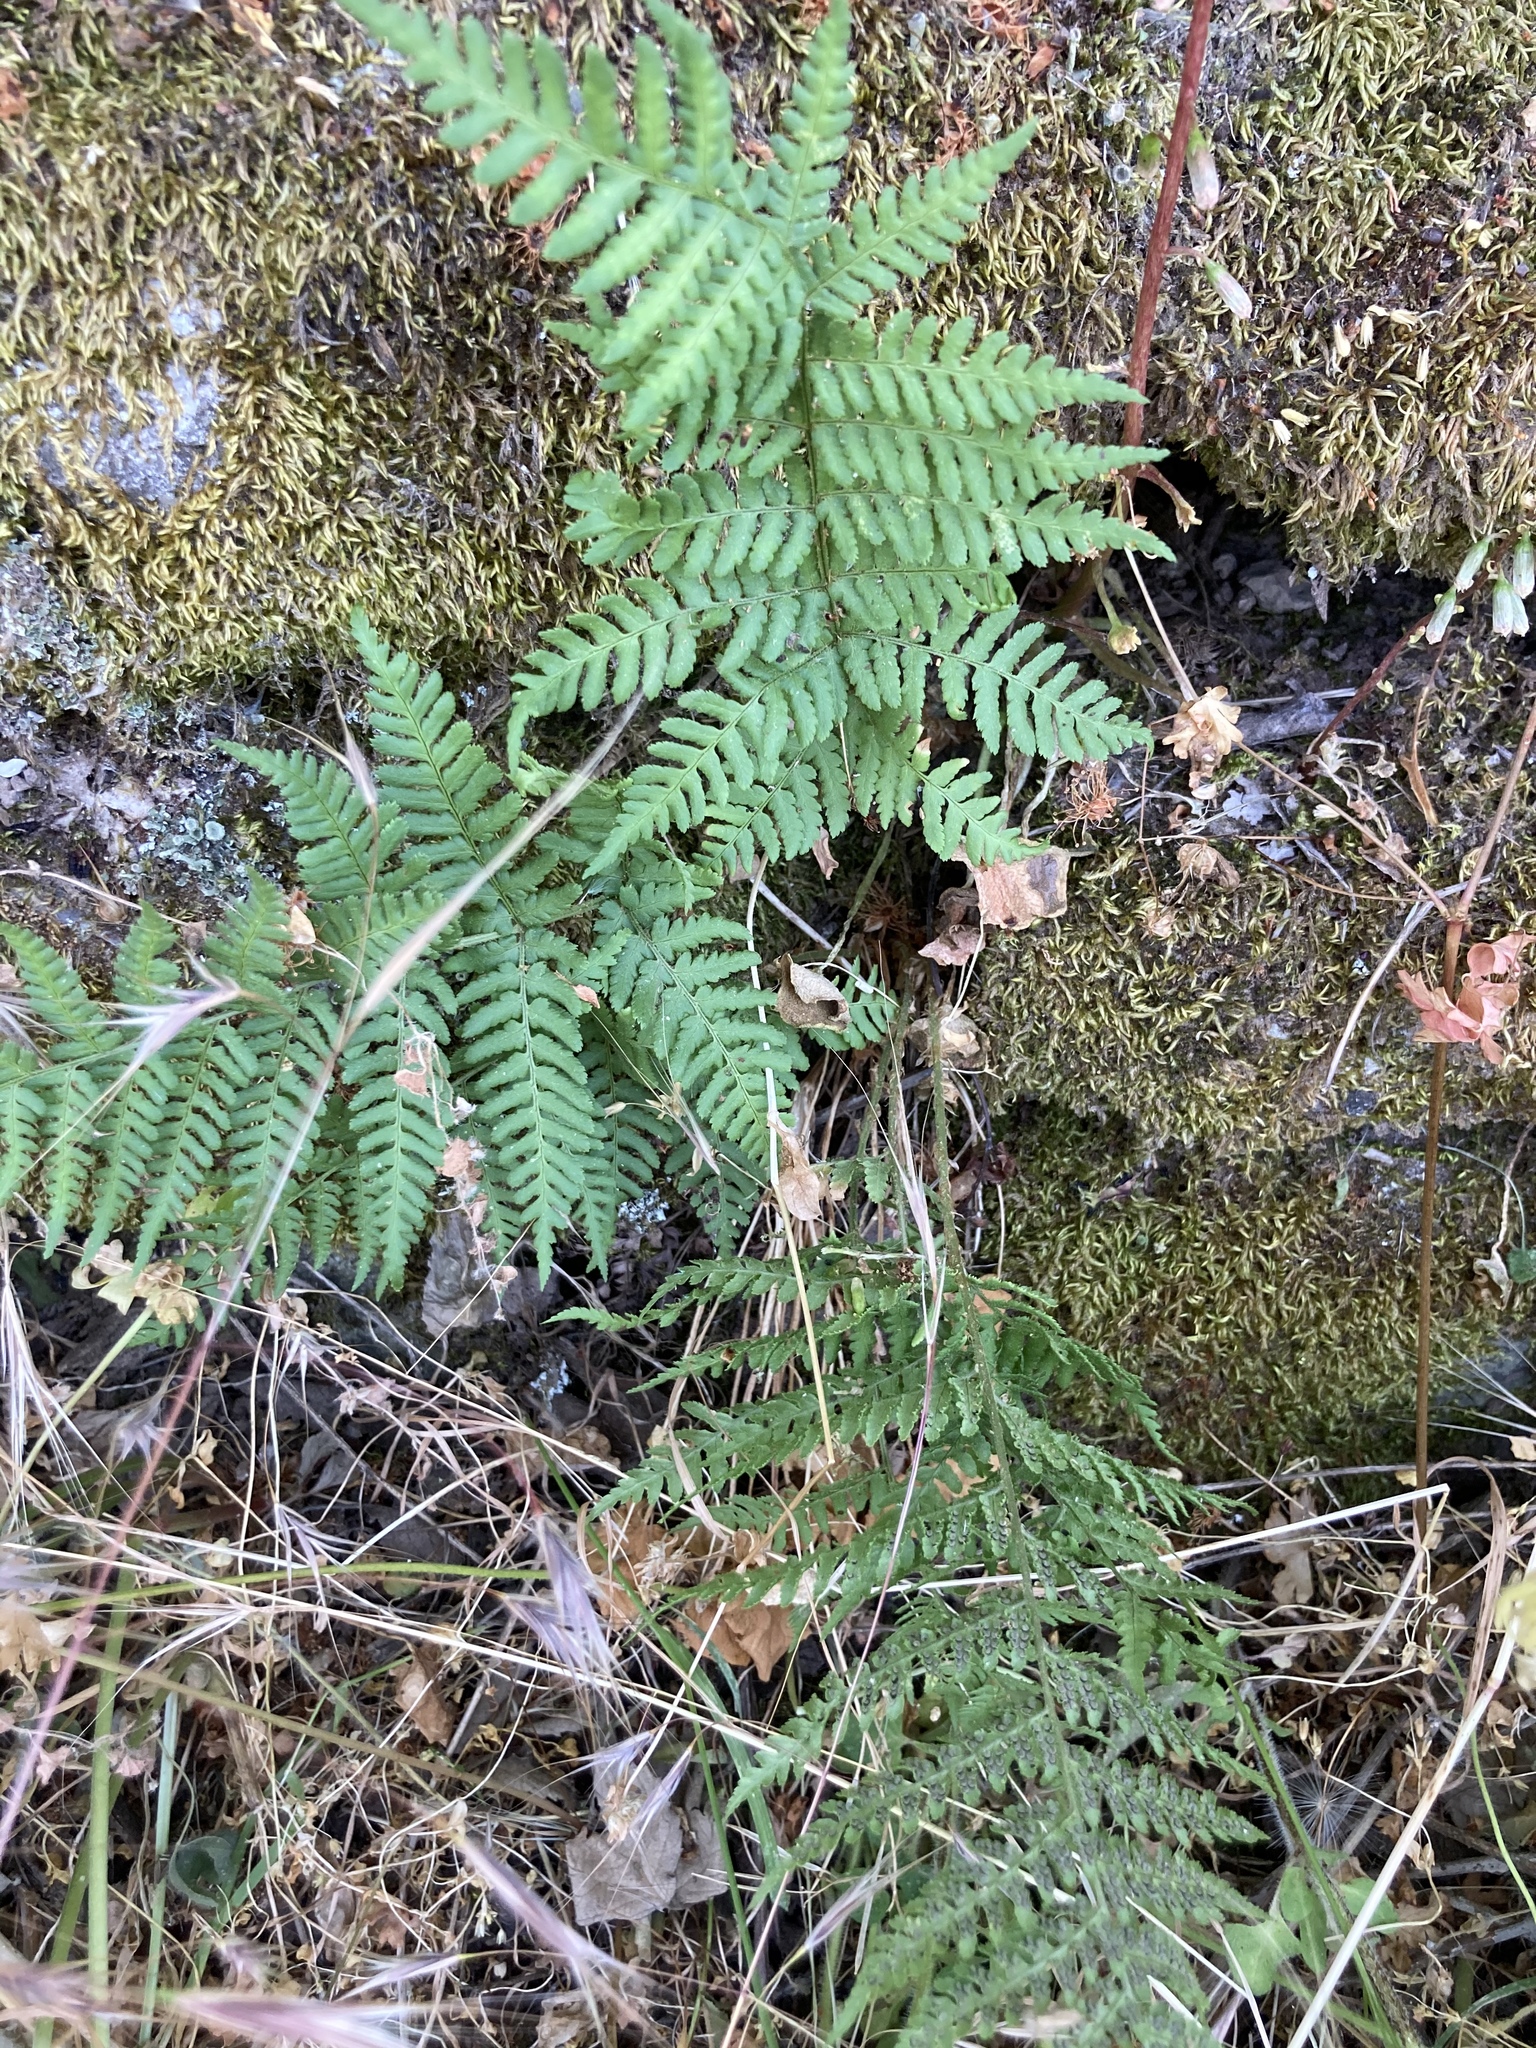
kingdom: Plantae
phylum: Tracheophyta
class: Polypodiopsida
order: Polypodiales
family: Dryopteridaceae
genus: Dryopteris
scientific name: Dryopteris pallida
